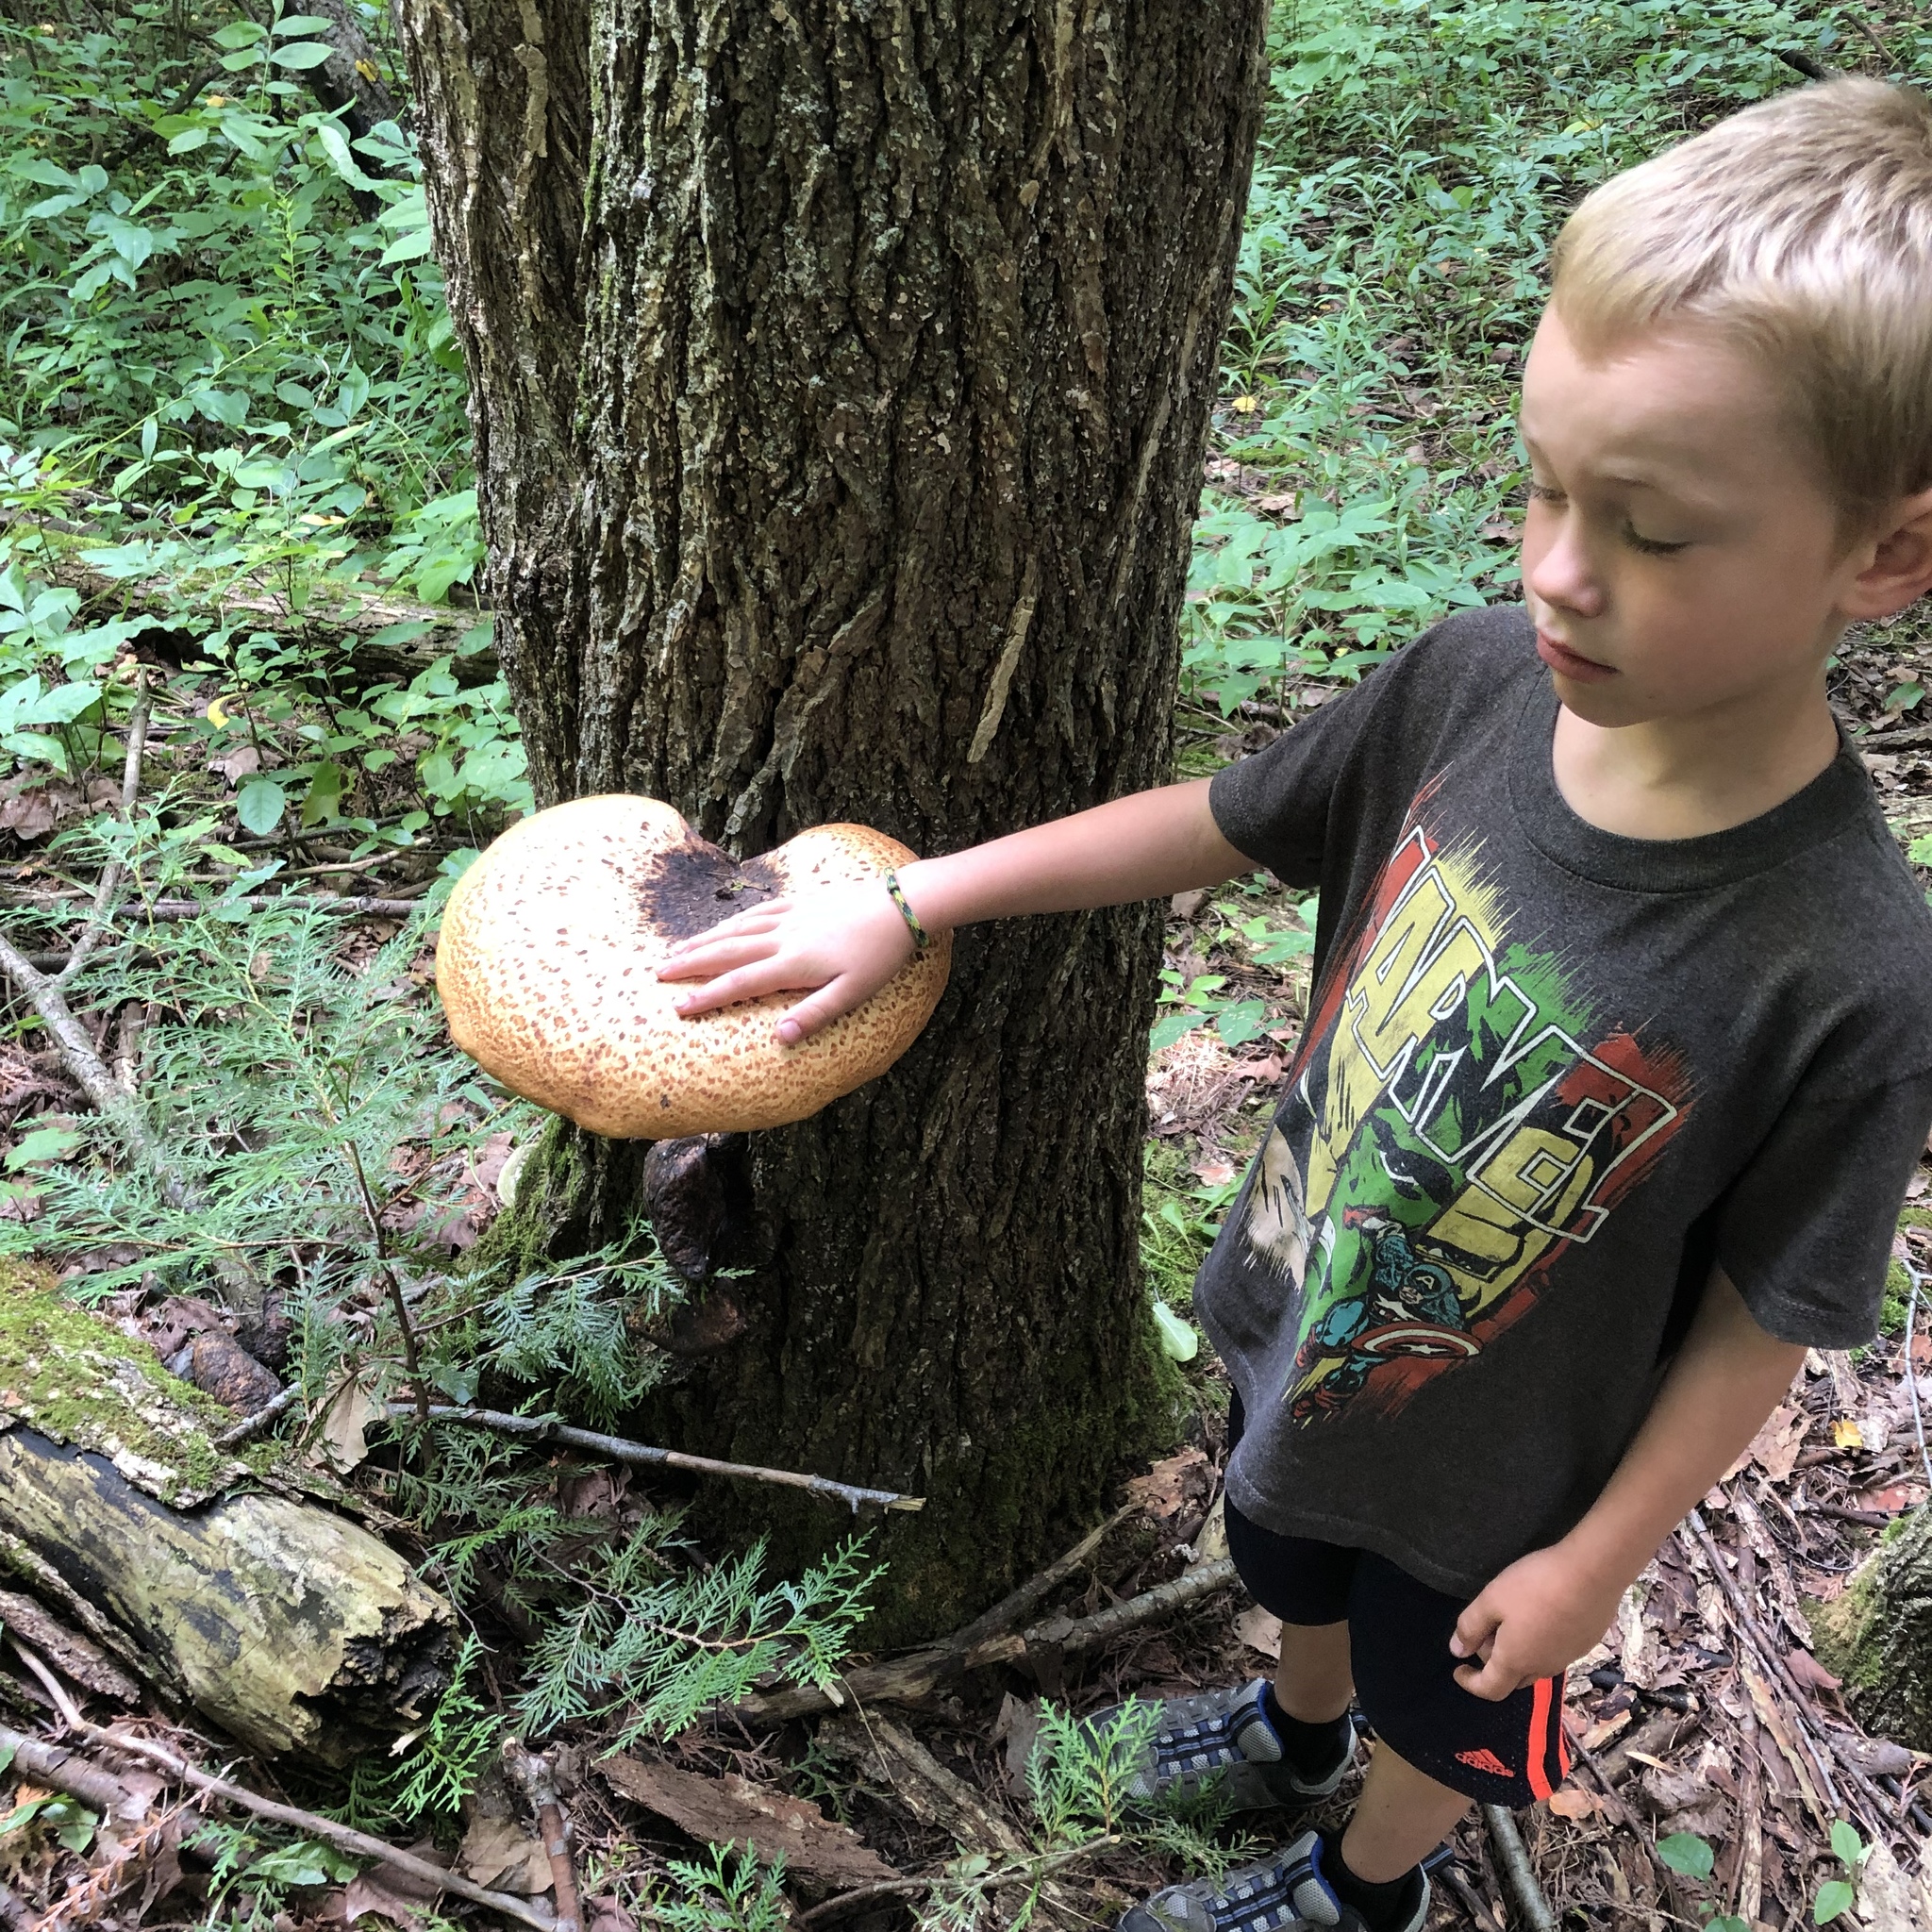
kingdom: Fungi
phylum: Basidiomycota
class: Agaricomycetes
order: Polyporales
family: Polyporaceae
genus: Cerioporus
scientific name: Cerioporus squamosus
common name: Dryad's saddle
